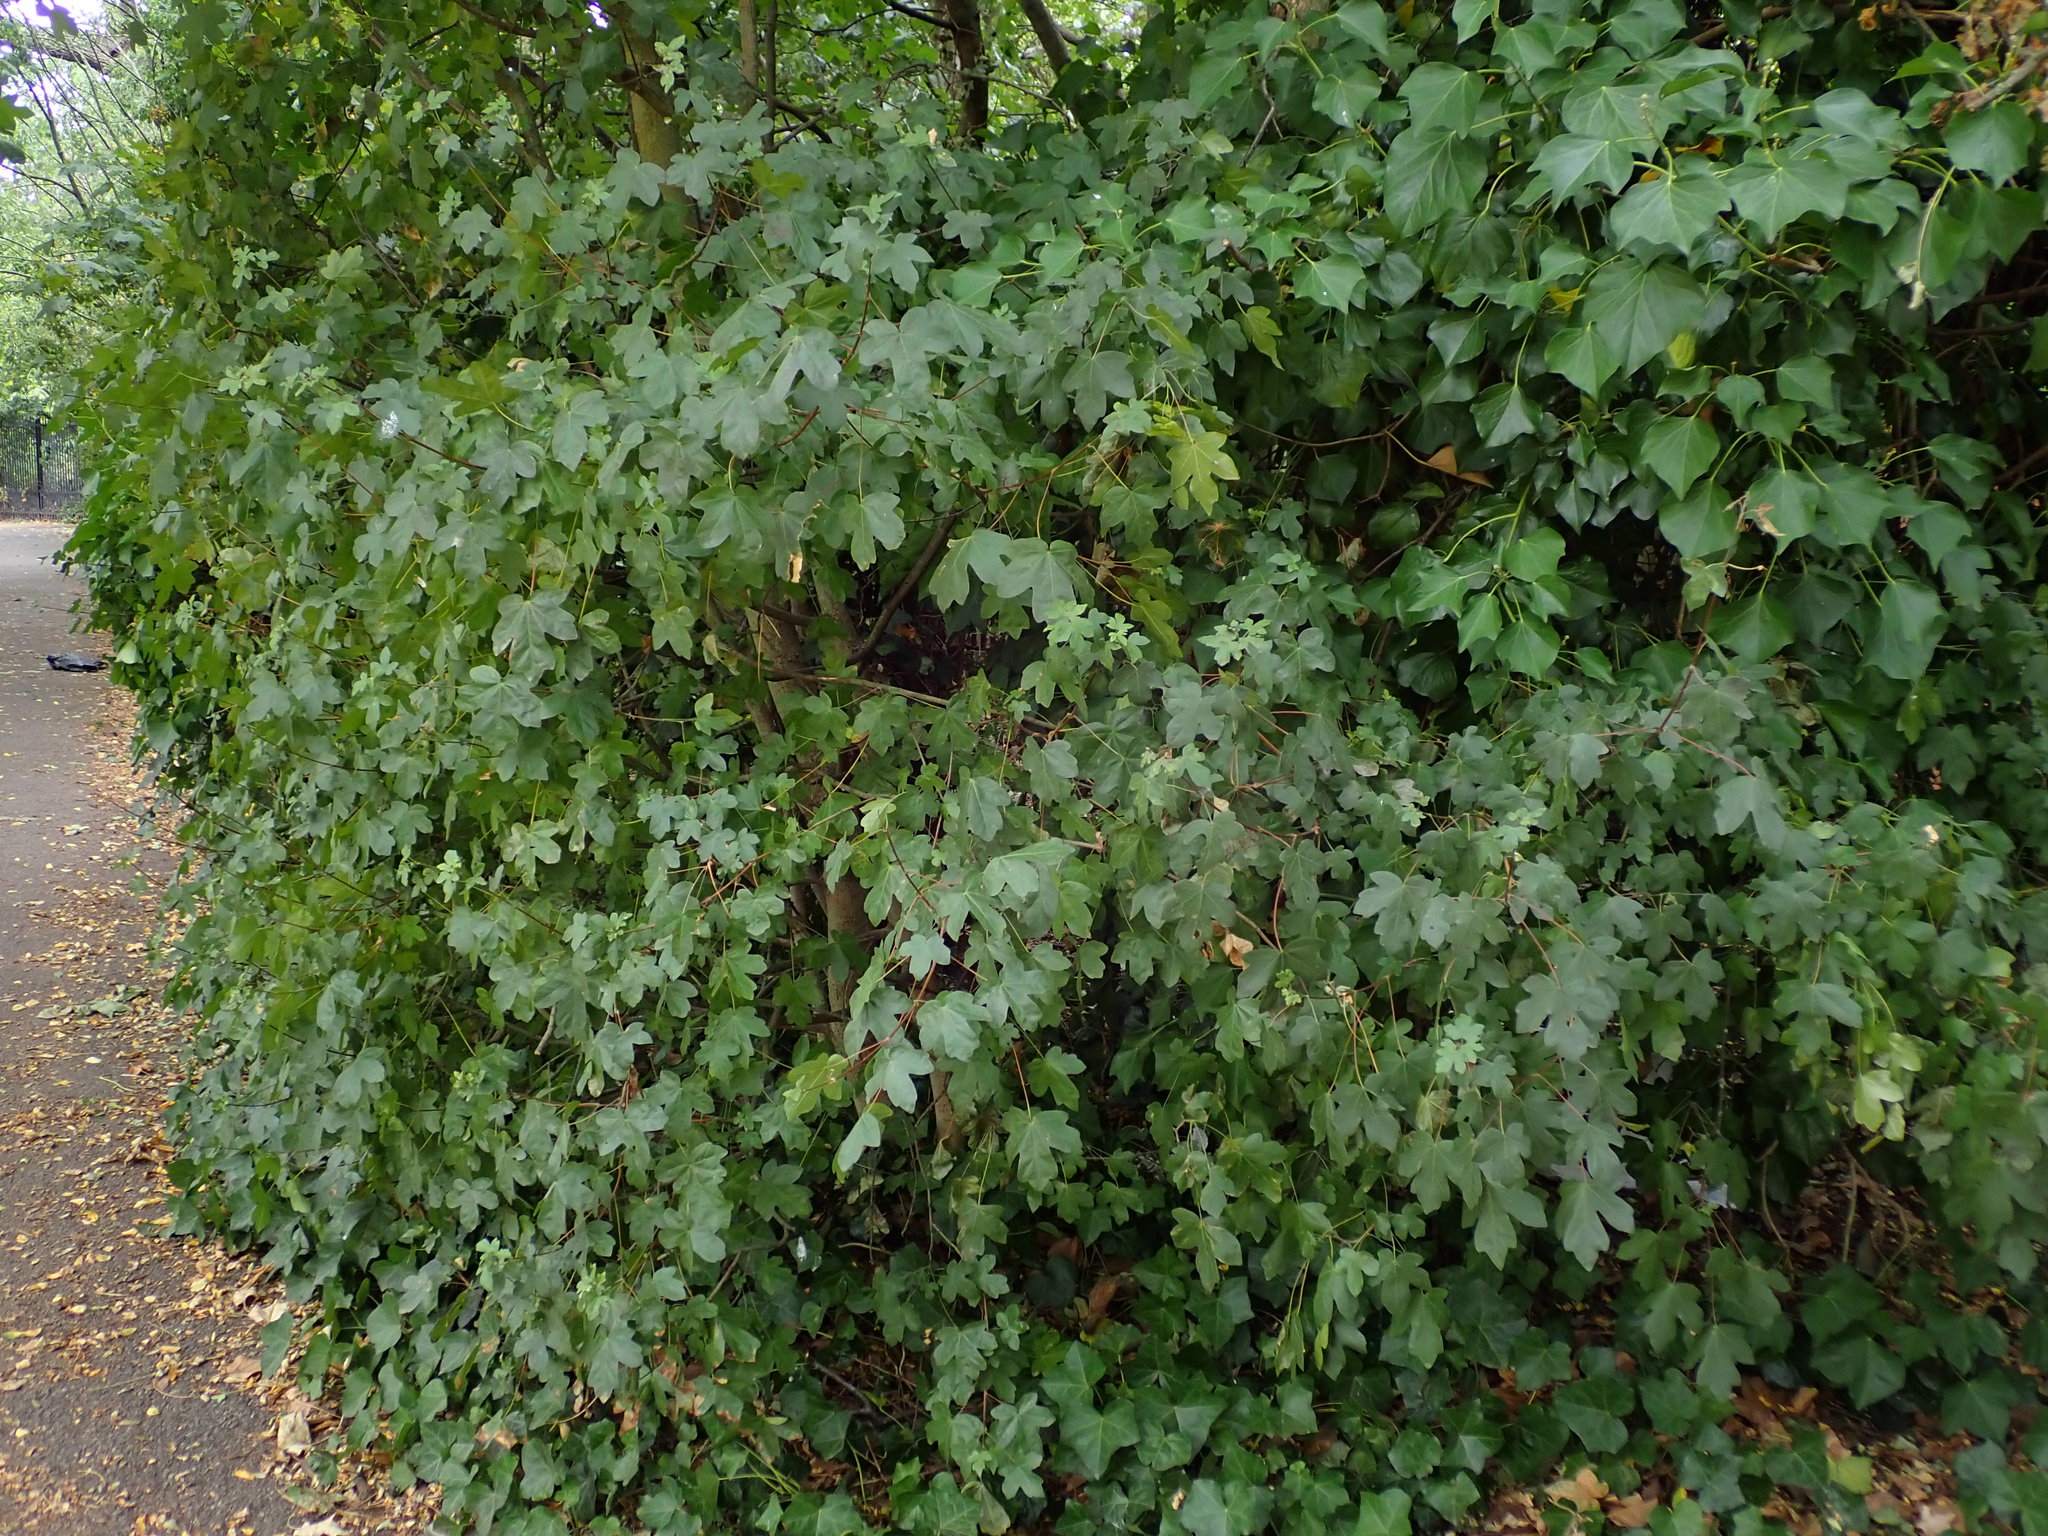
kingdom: Plantae
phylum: Tracheophyta
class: Magnoliopsida
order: Sapindales
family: Sapindaceae
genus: Acer
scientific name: Acer campestre
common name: Field maple
